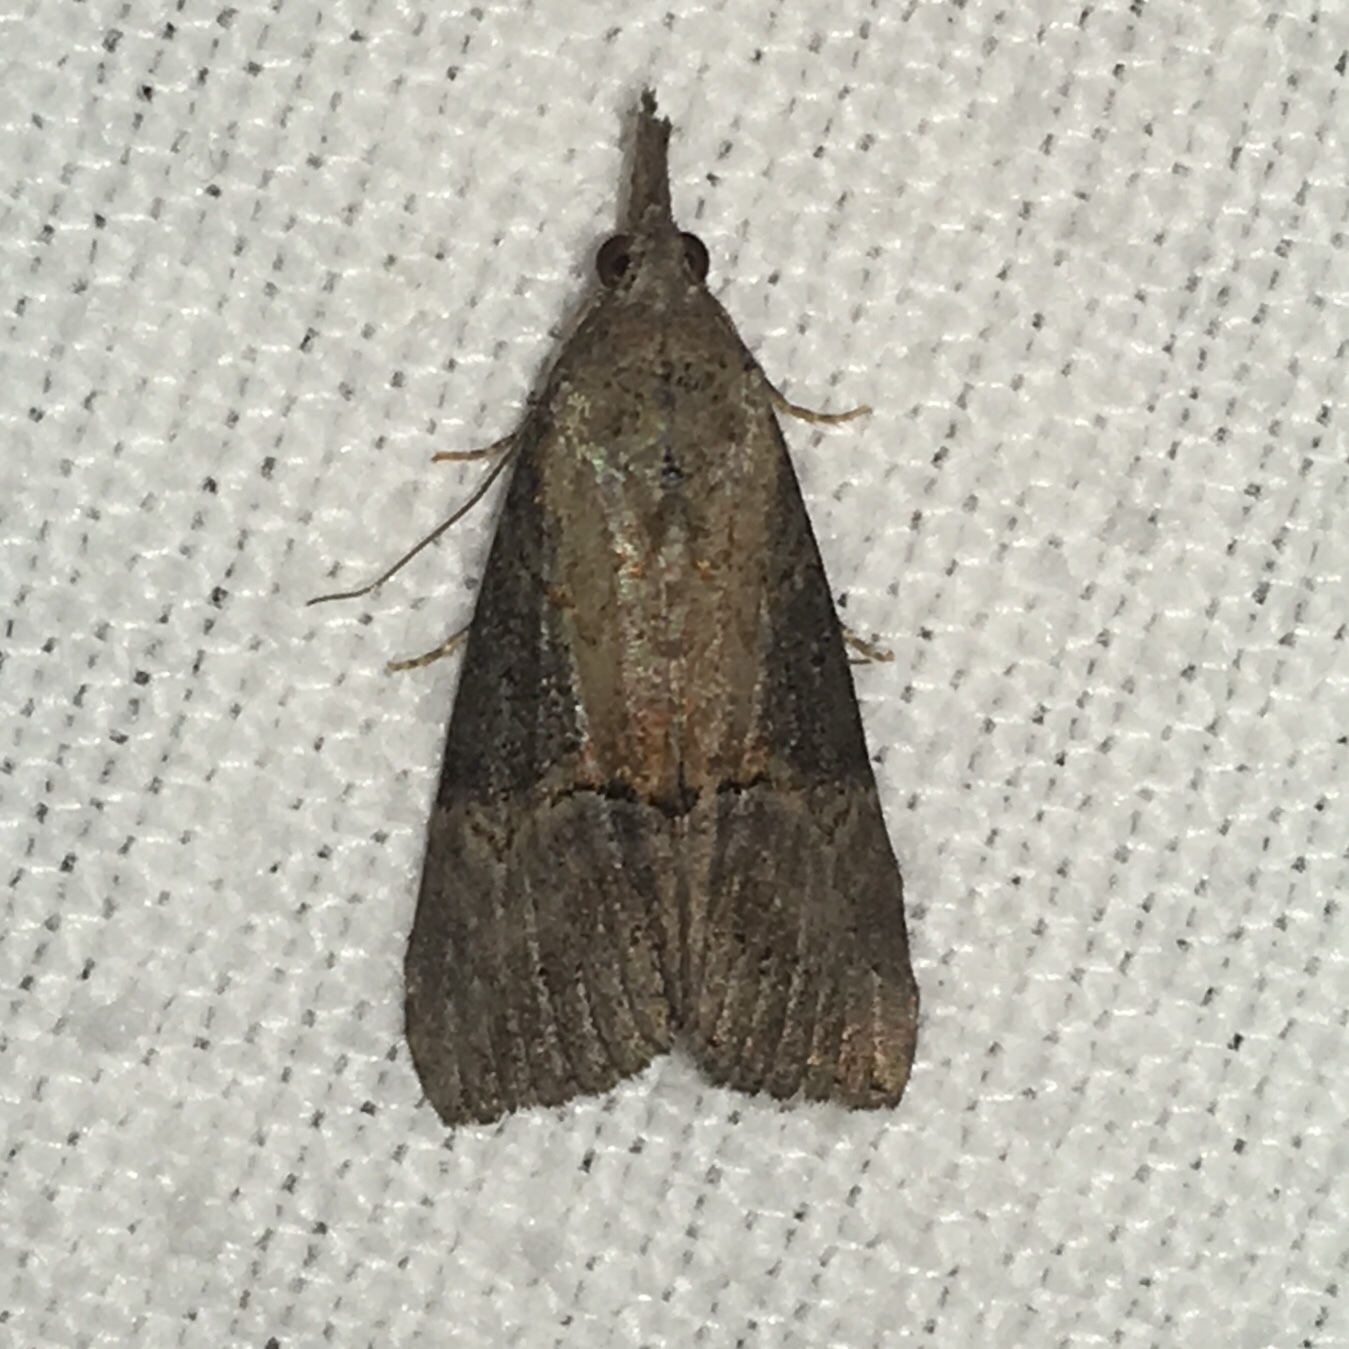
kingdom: Animalia
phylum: Arthropoda
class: Insecta
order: Lepidoptera
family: Erebidae
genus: Hypena
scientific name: Hypena scabra
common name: Green cloverworm
